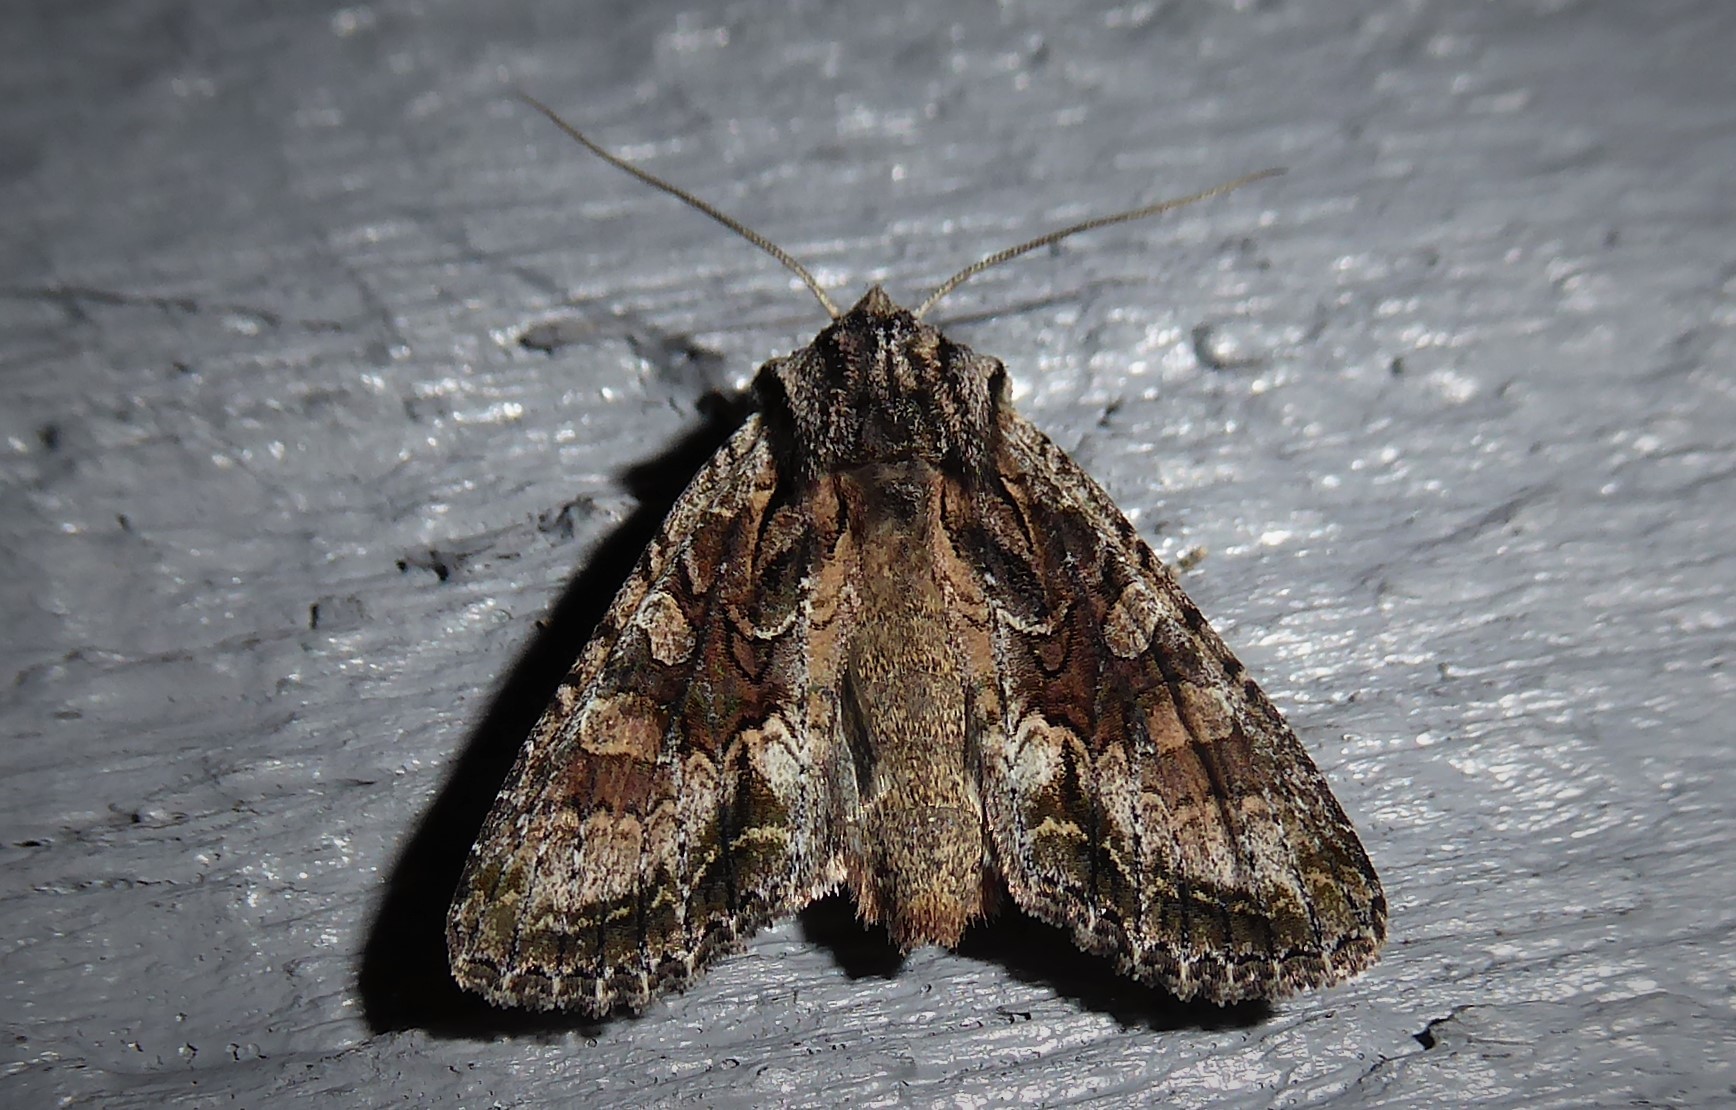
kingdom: Animalia
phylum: Arthropoda
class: Insecta
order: Lepidoptera
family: Noctuidae
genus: Ichneutica
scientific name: Ichneutica mutans
